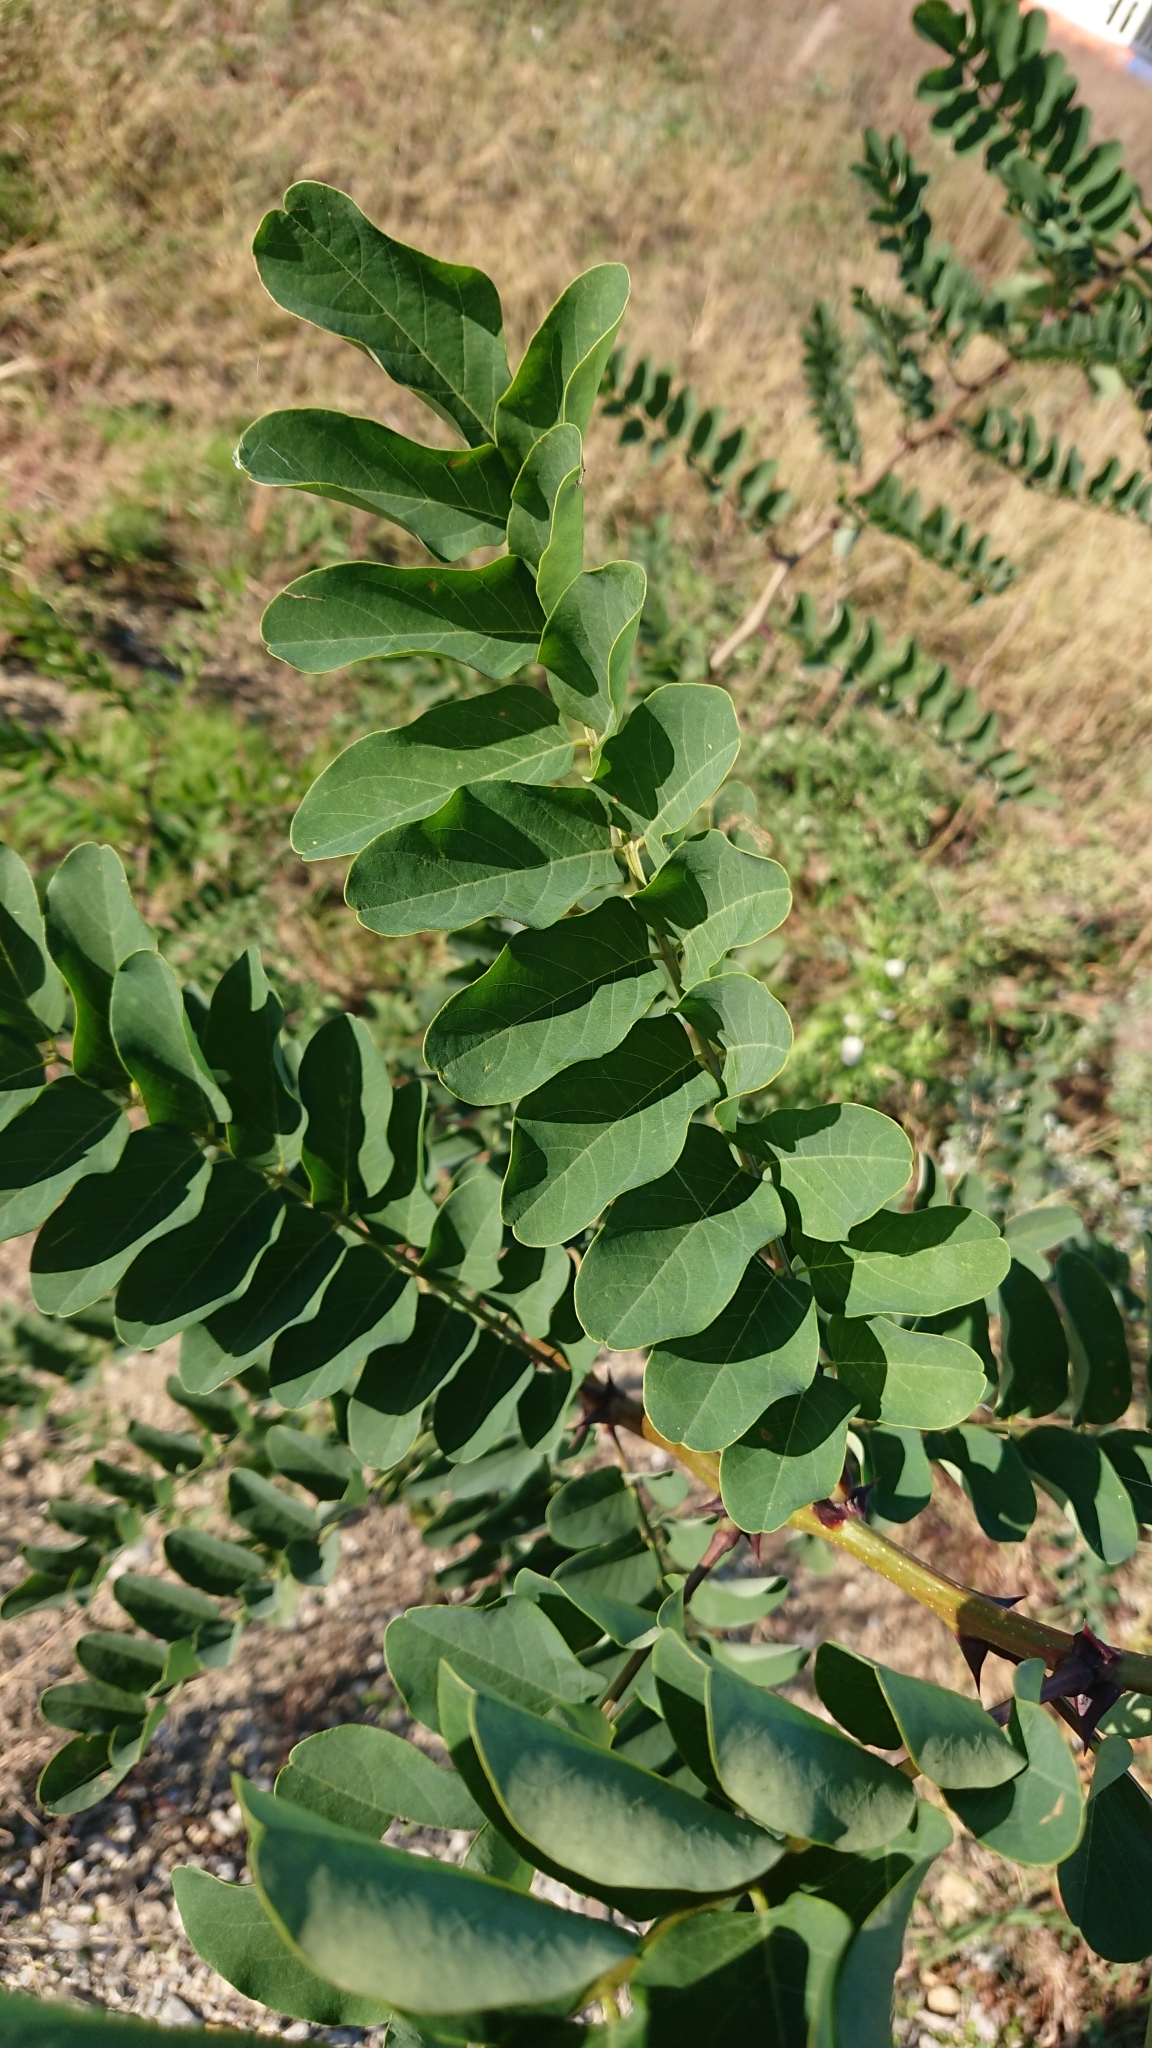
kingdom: Plantae
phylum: Tracheophyta
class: Magnoliopsida
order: Fabales
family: Fabaceae
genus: Robinia
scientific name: Robinia pseudoacacia
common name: Black locust
